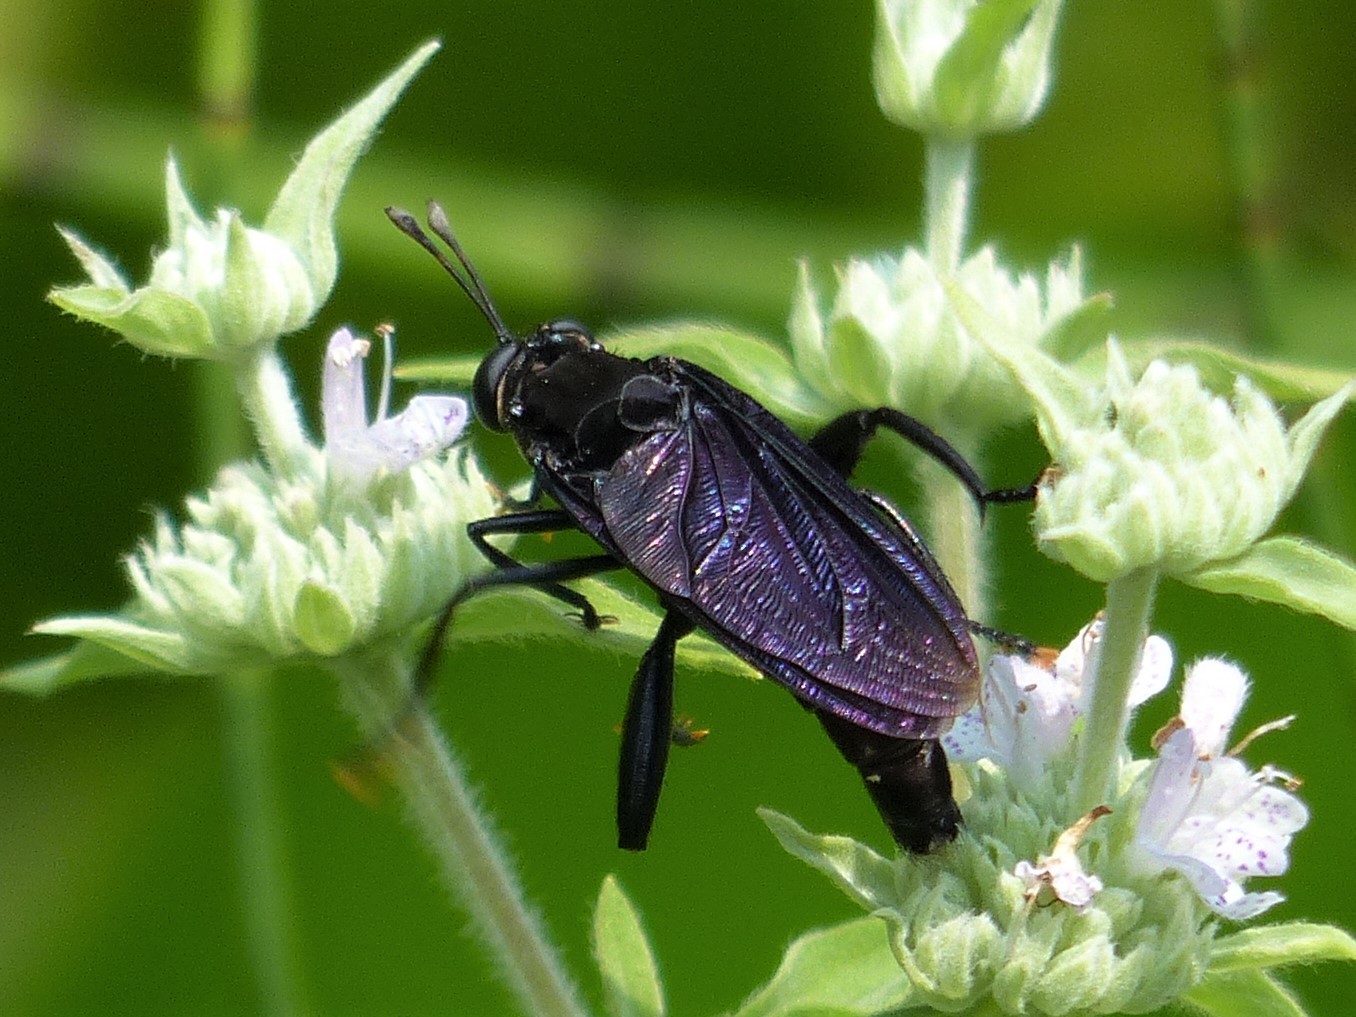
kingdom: Animalia
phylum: Arthropoda
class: Insecta
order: Diptera
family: Mydidae
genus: Mydas
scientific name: Mydas clavatus
